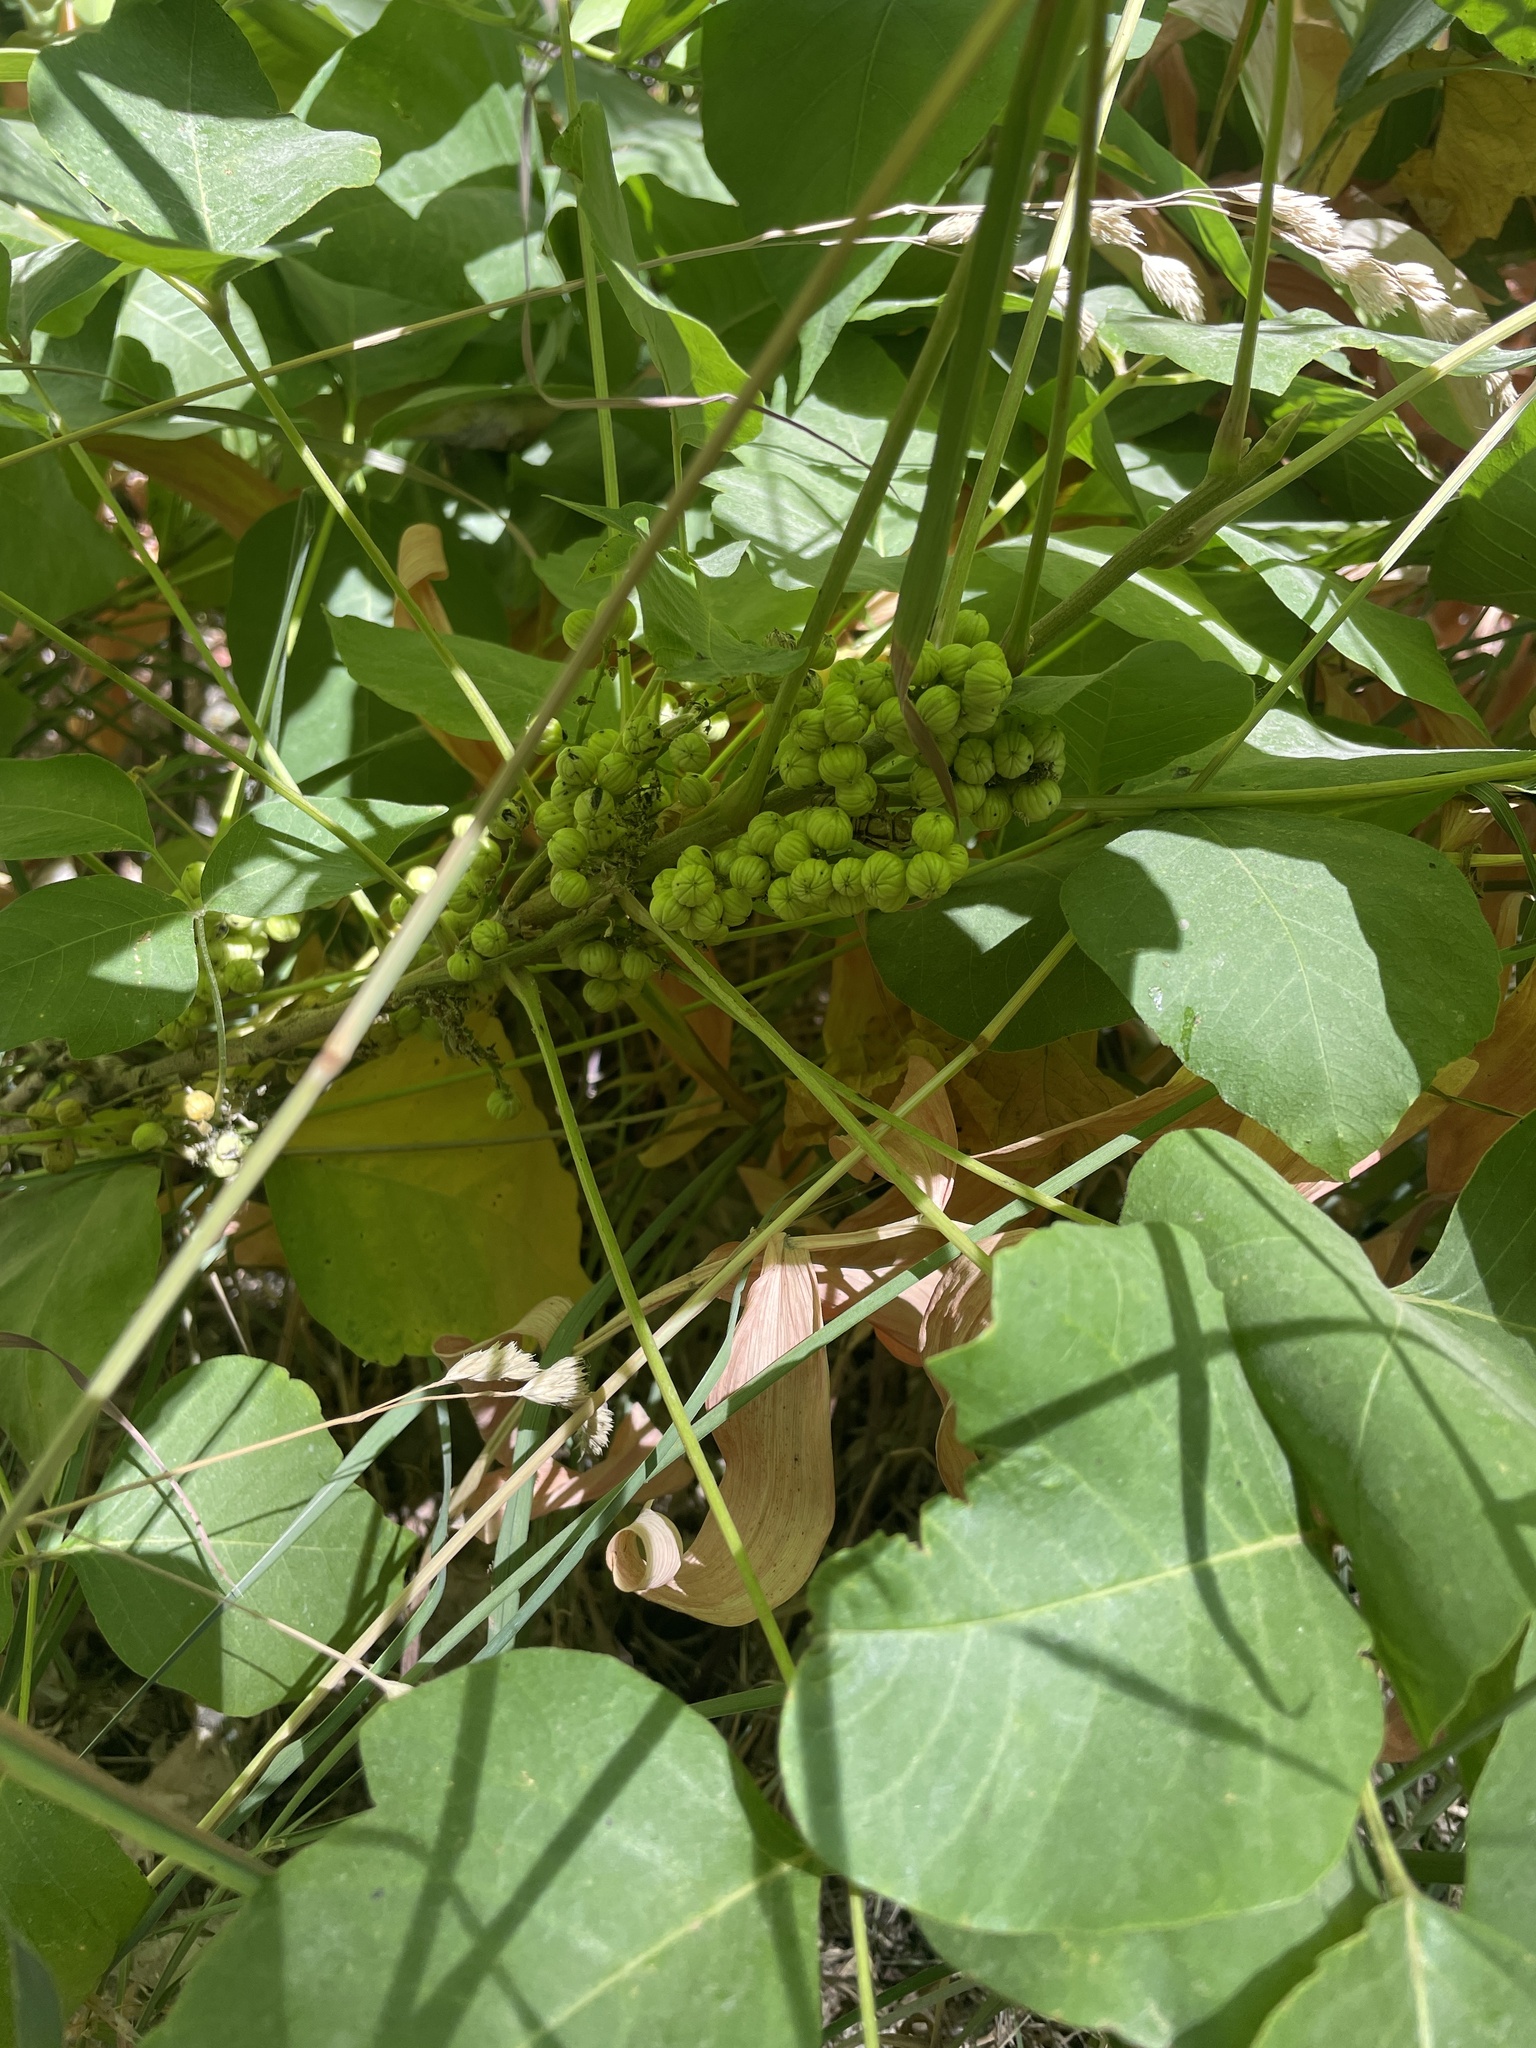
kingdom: Plantae
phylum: Tracheophyta
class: Magnoliopsida
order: Sapindales
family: Anacardiaceae
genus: Toxicodendron
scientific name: Toxicodendron rydbergii
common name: Rydberg's poison-ivy
